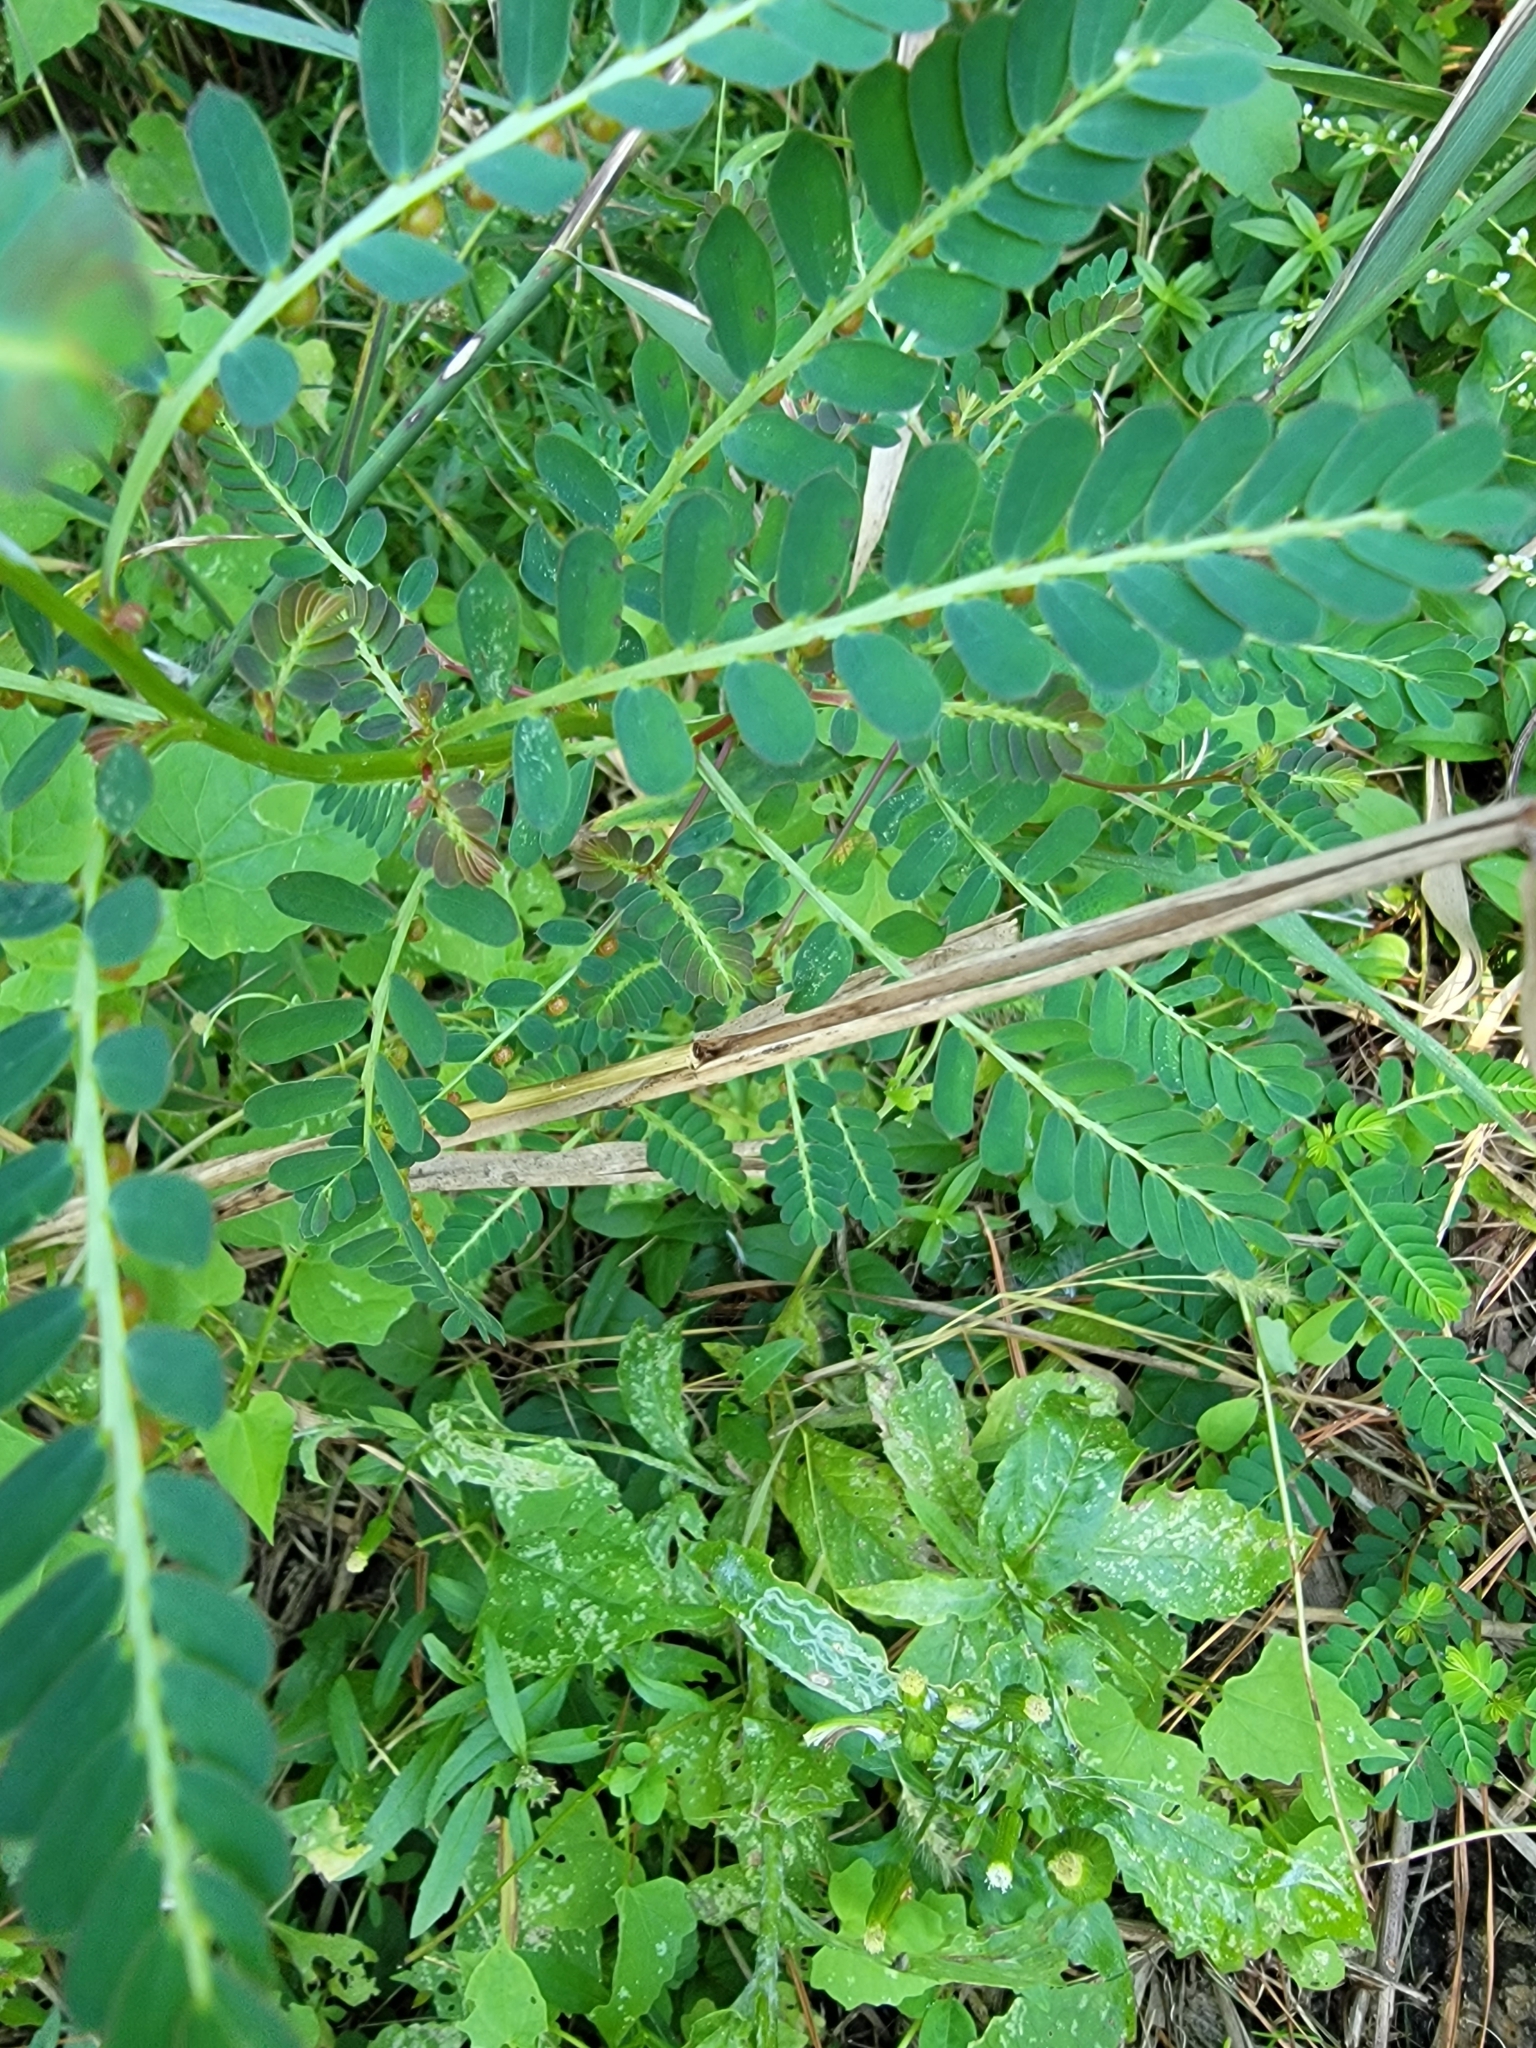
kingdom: Plantae
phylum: Tracheophyta
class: Magnoliopsida
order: Malpighiales
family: Phyllanthaceae
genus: Phyllanthus
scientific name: Phyllanthus urinaria
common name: Chamber bitter
